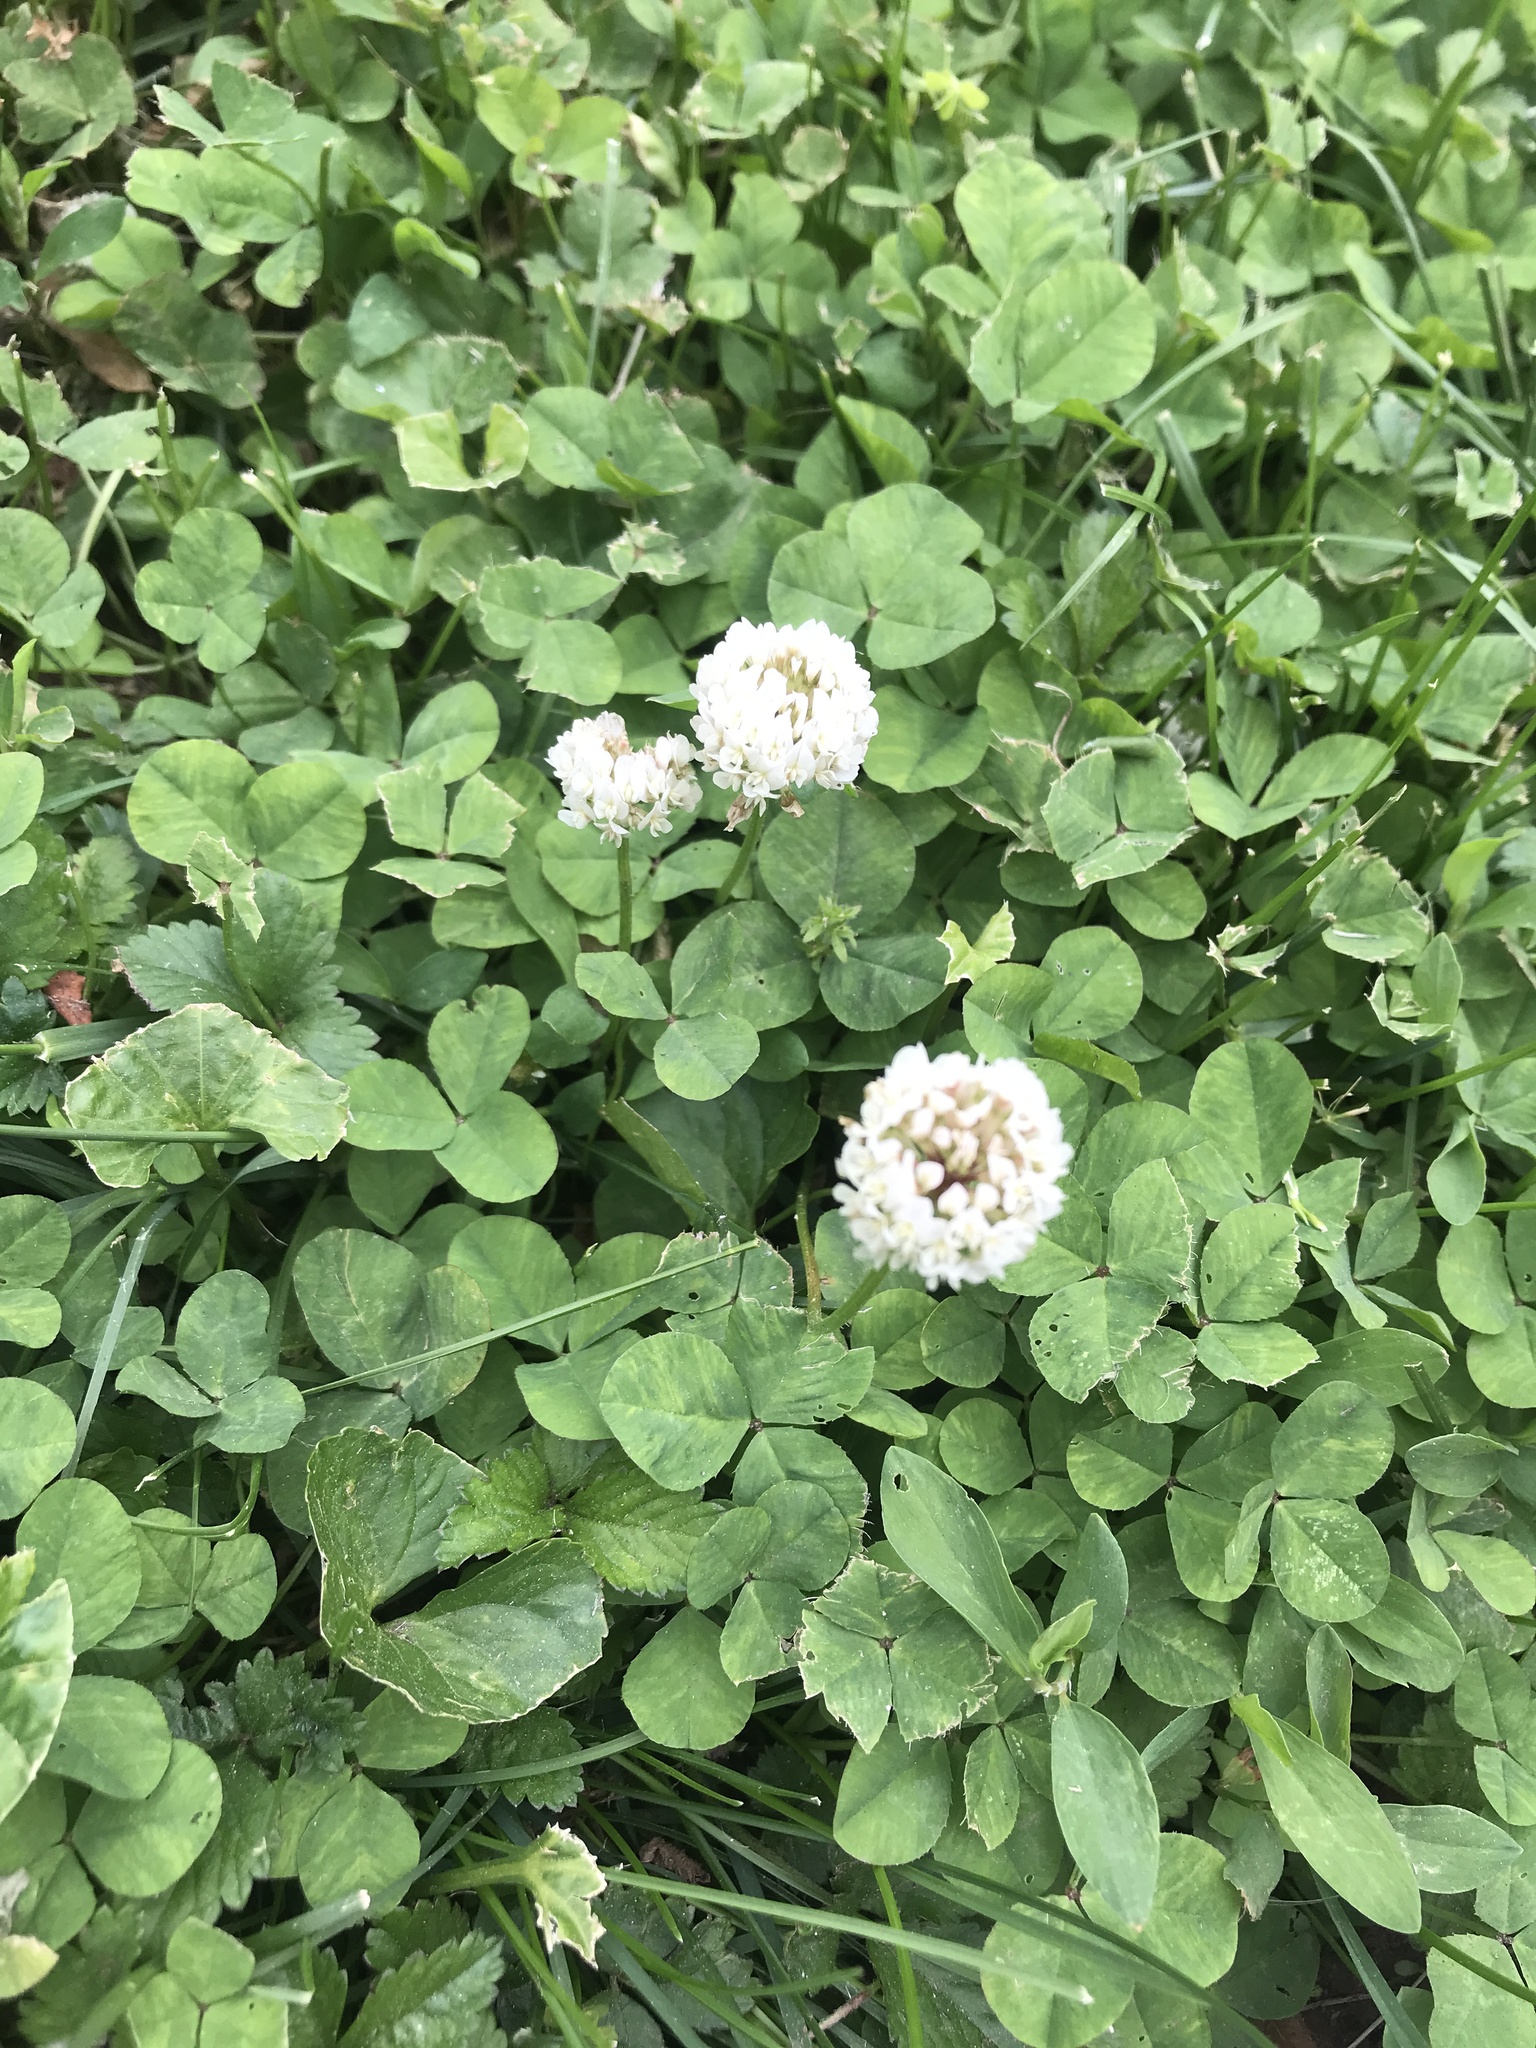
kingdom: Plantae
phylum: Tracheophyta
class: Magnoliopsida
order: Fabales
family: Fabaceae
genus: Trifolium
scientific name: Trifolium repens
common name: White clover
